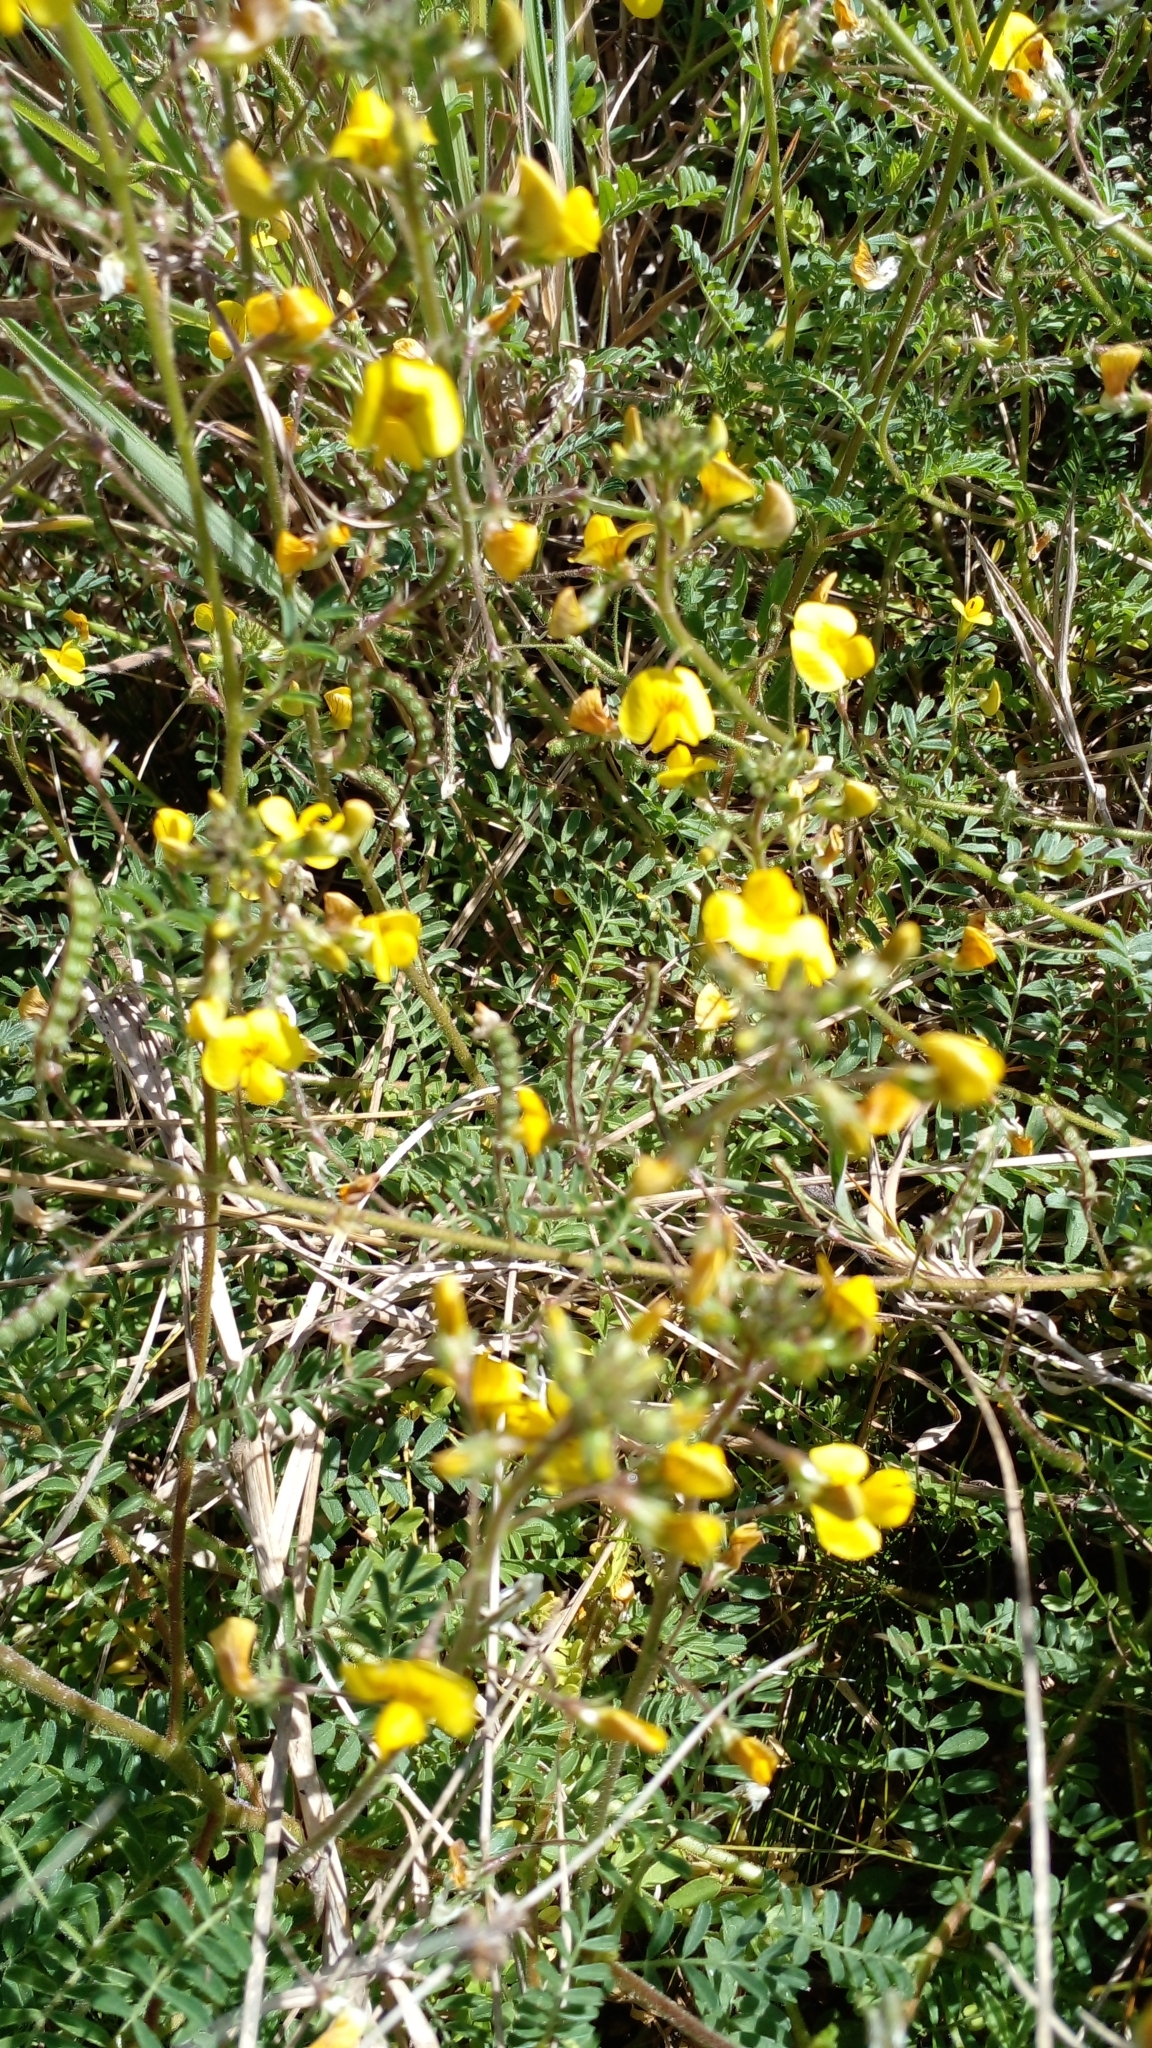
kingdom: Plantae
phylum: Tracheophyta
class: Magnoliopsida
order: Fabales
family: Fabaceae
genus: Adesmia
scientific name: Adesmia muricata
